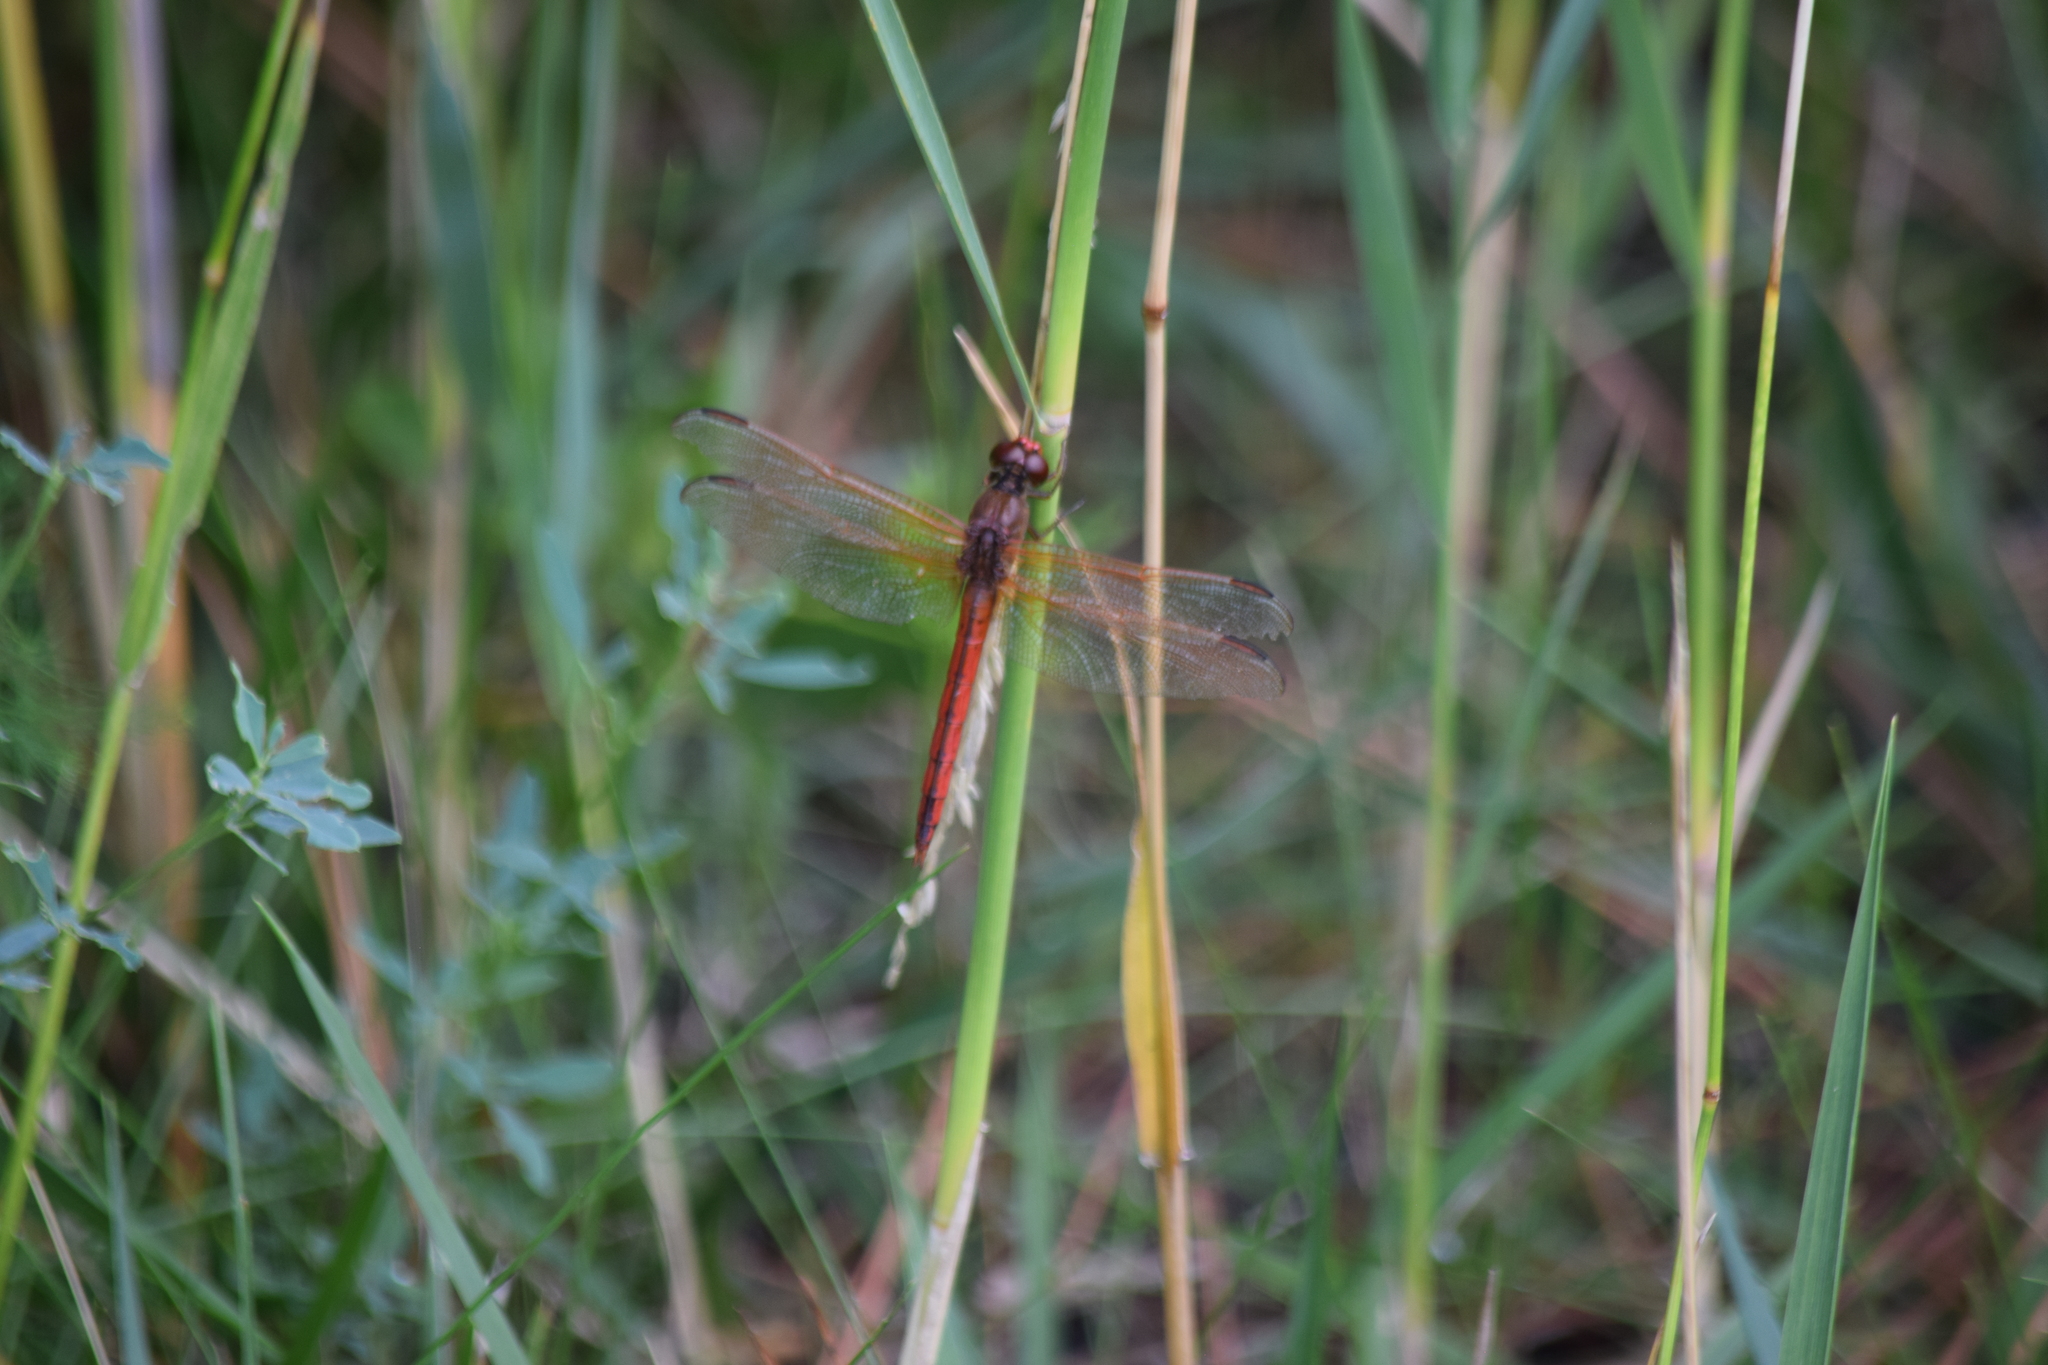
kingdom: Animalia
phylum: Arthropoda
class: Insecta
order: Odonata
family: Libellulidae
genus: Libellula
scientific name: Libellula needhami
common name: Needham's skimmer
